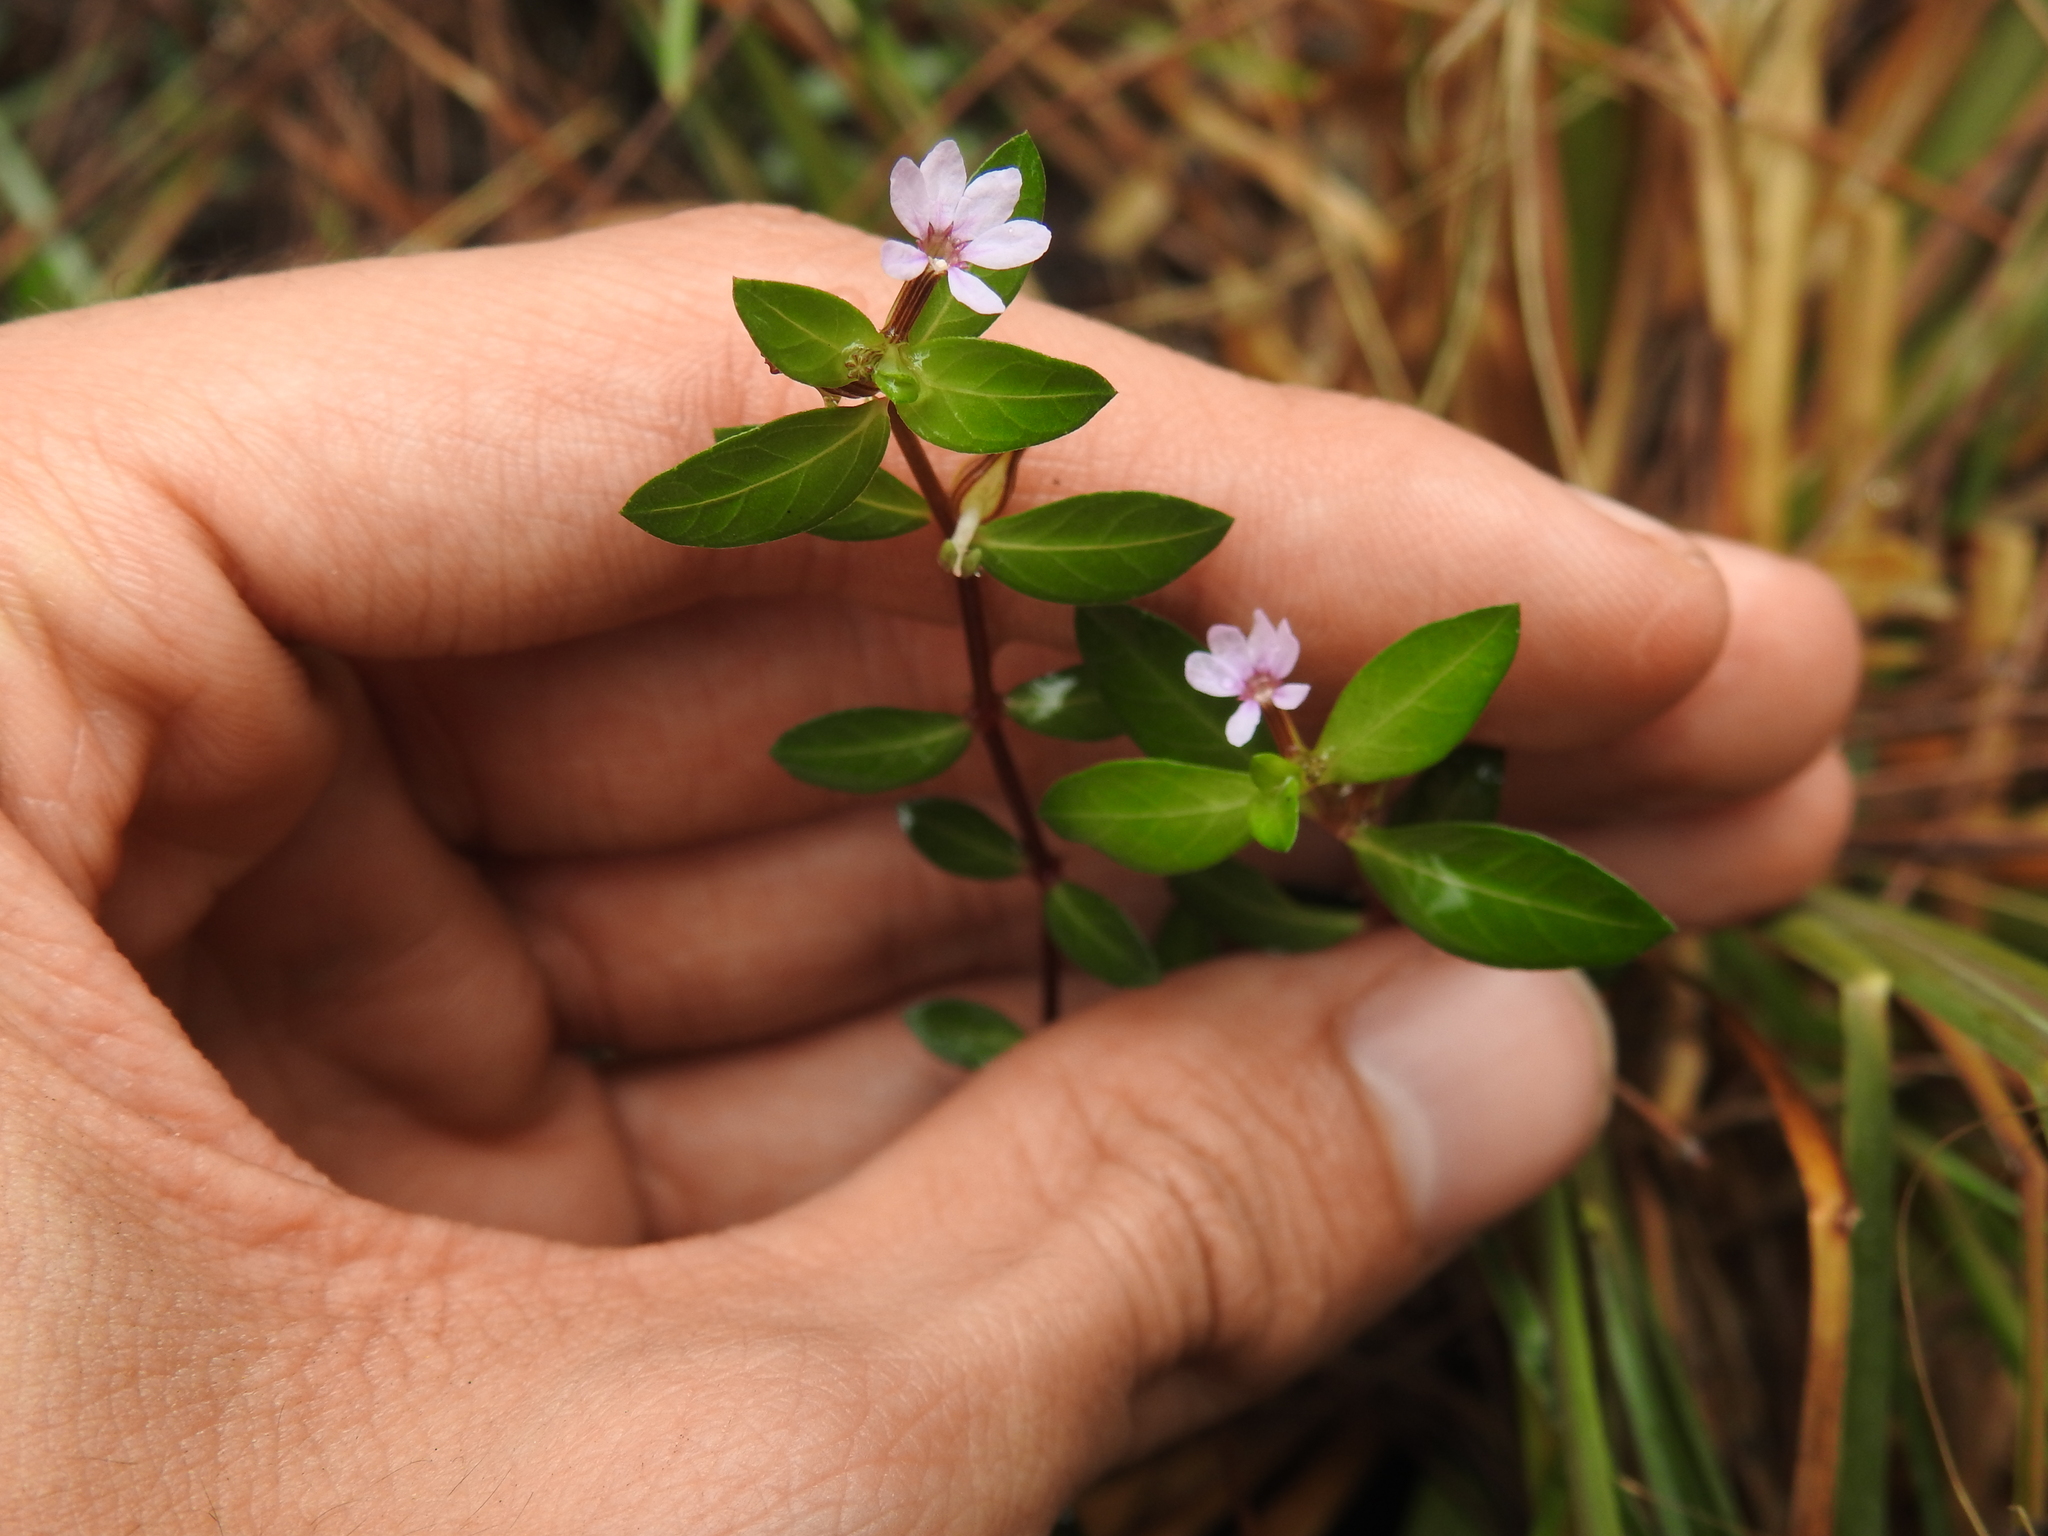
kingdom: Plantae
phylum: Tracheophyta
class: Magnoliopsida
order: Myrtales
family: Lythraceae
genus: Cuphea
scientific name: Cuphea strigulosa
